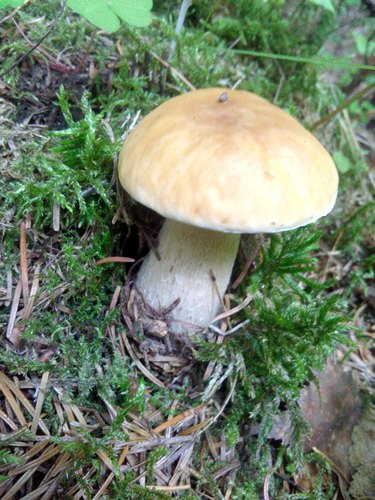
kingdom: Fungi
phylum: Basidiomycota
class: Agaricomycetes
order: Boletales
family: Boletaceae
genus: Boletus
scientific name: Boletus edulis
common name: Cep
